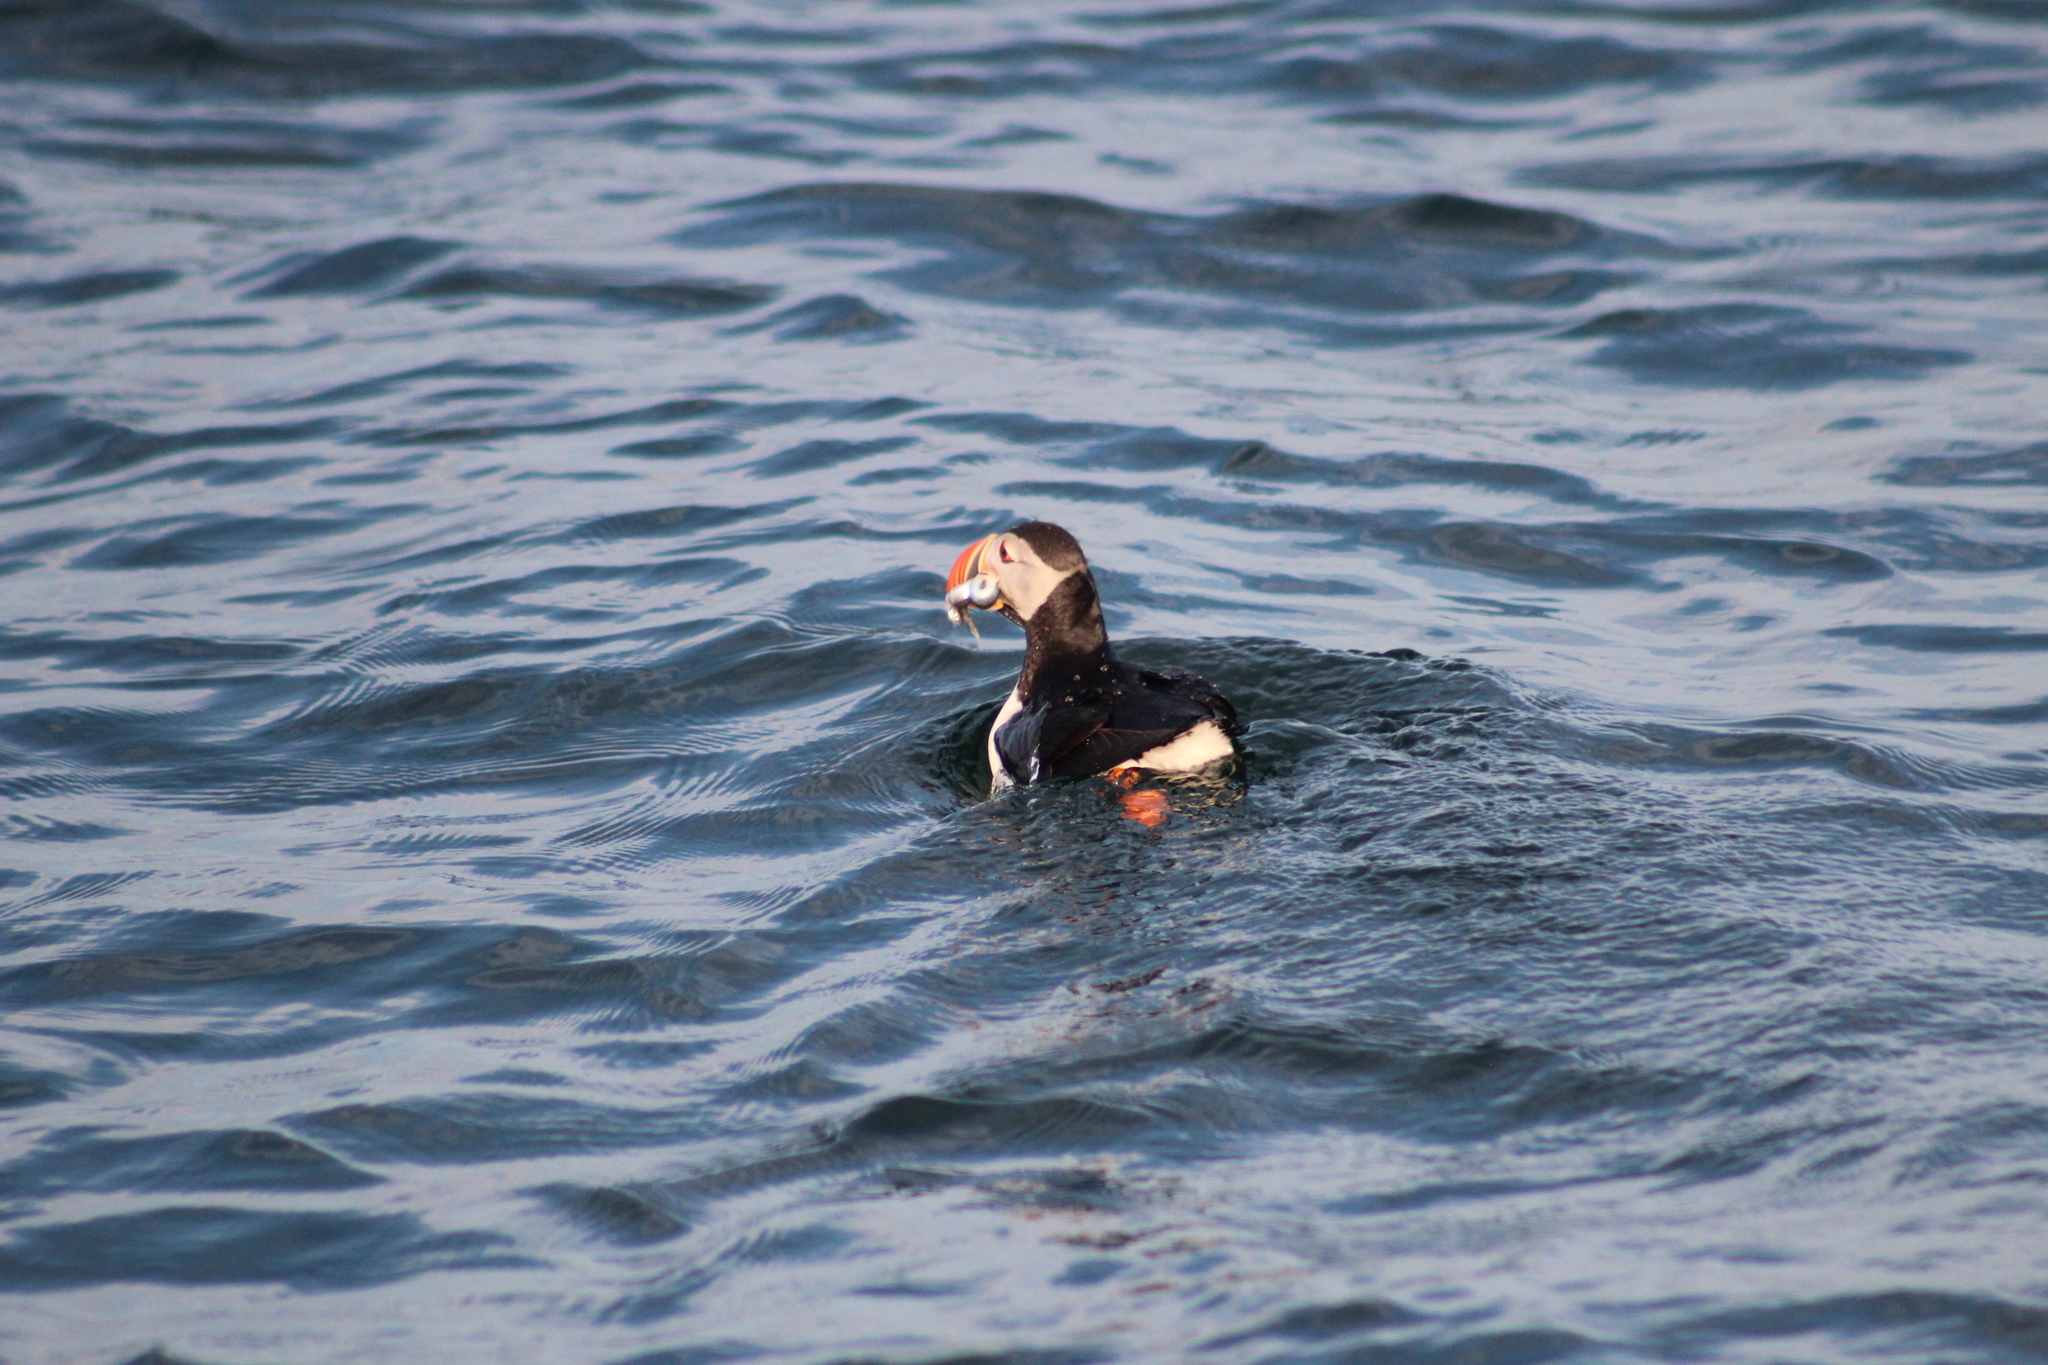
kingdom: Animalia
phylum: Chordata
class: Aves
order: Charadriiformes
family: Alcidae
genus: Fratercula
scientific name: Fratercula arctica
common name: Atlantic puffin
